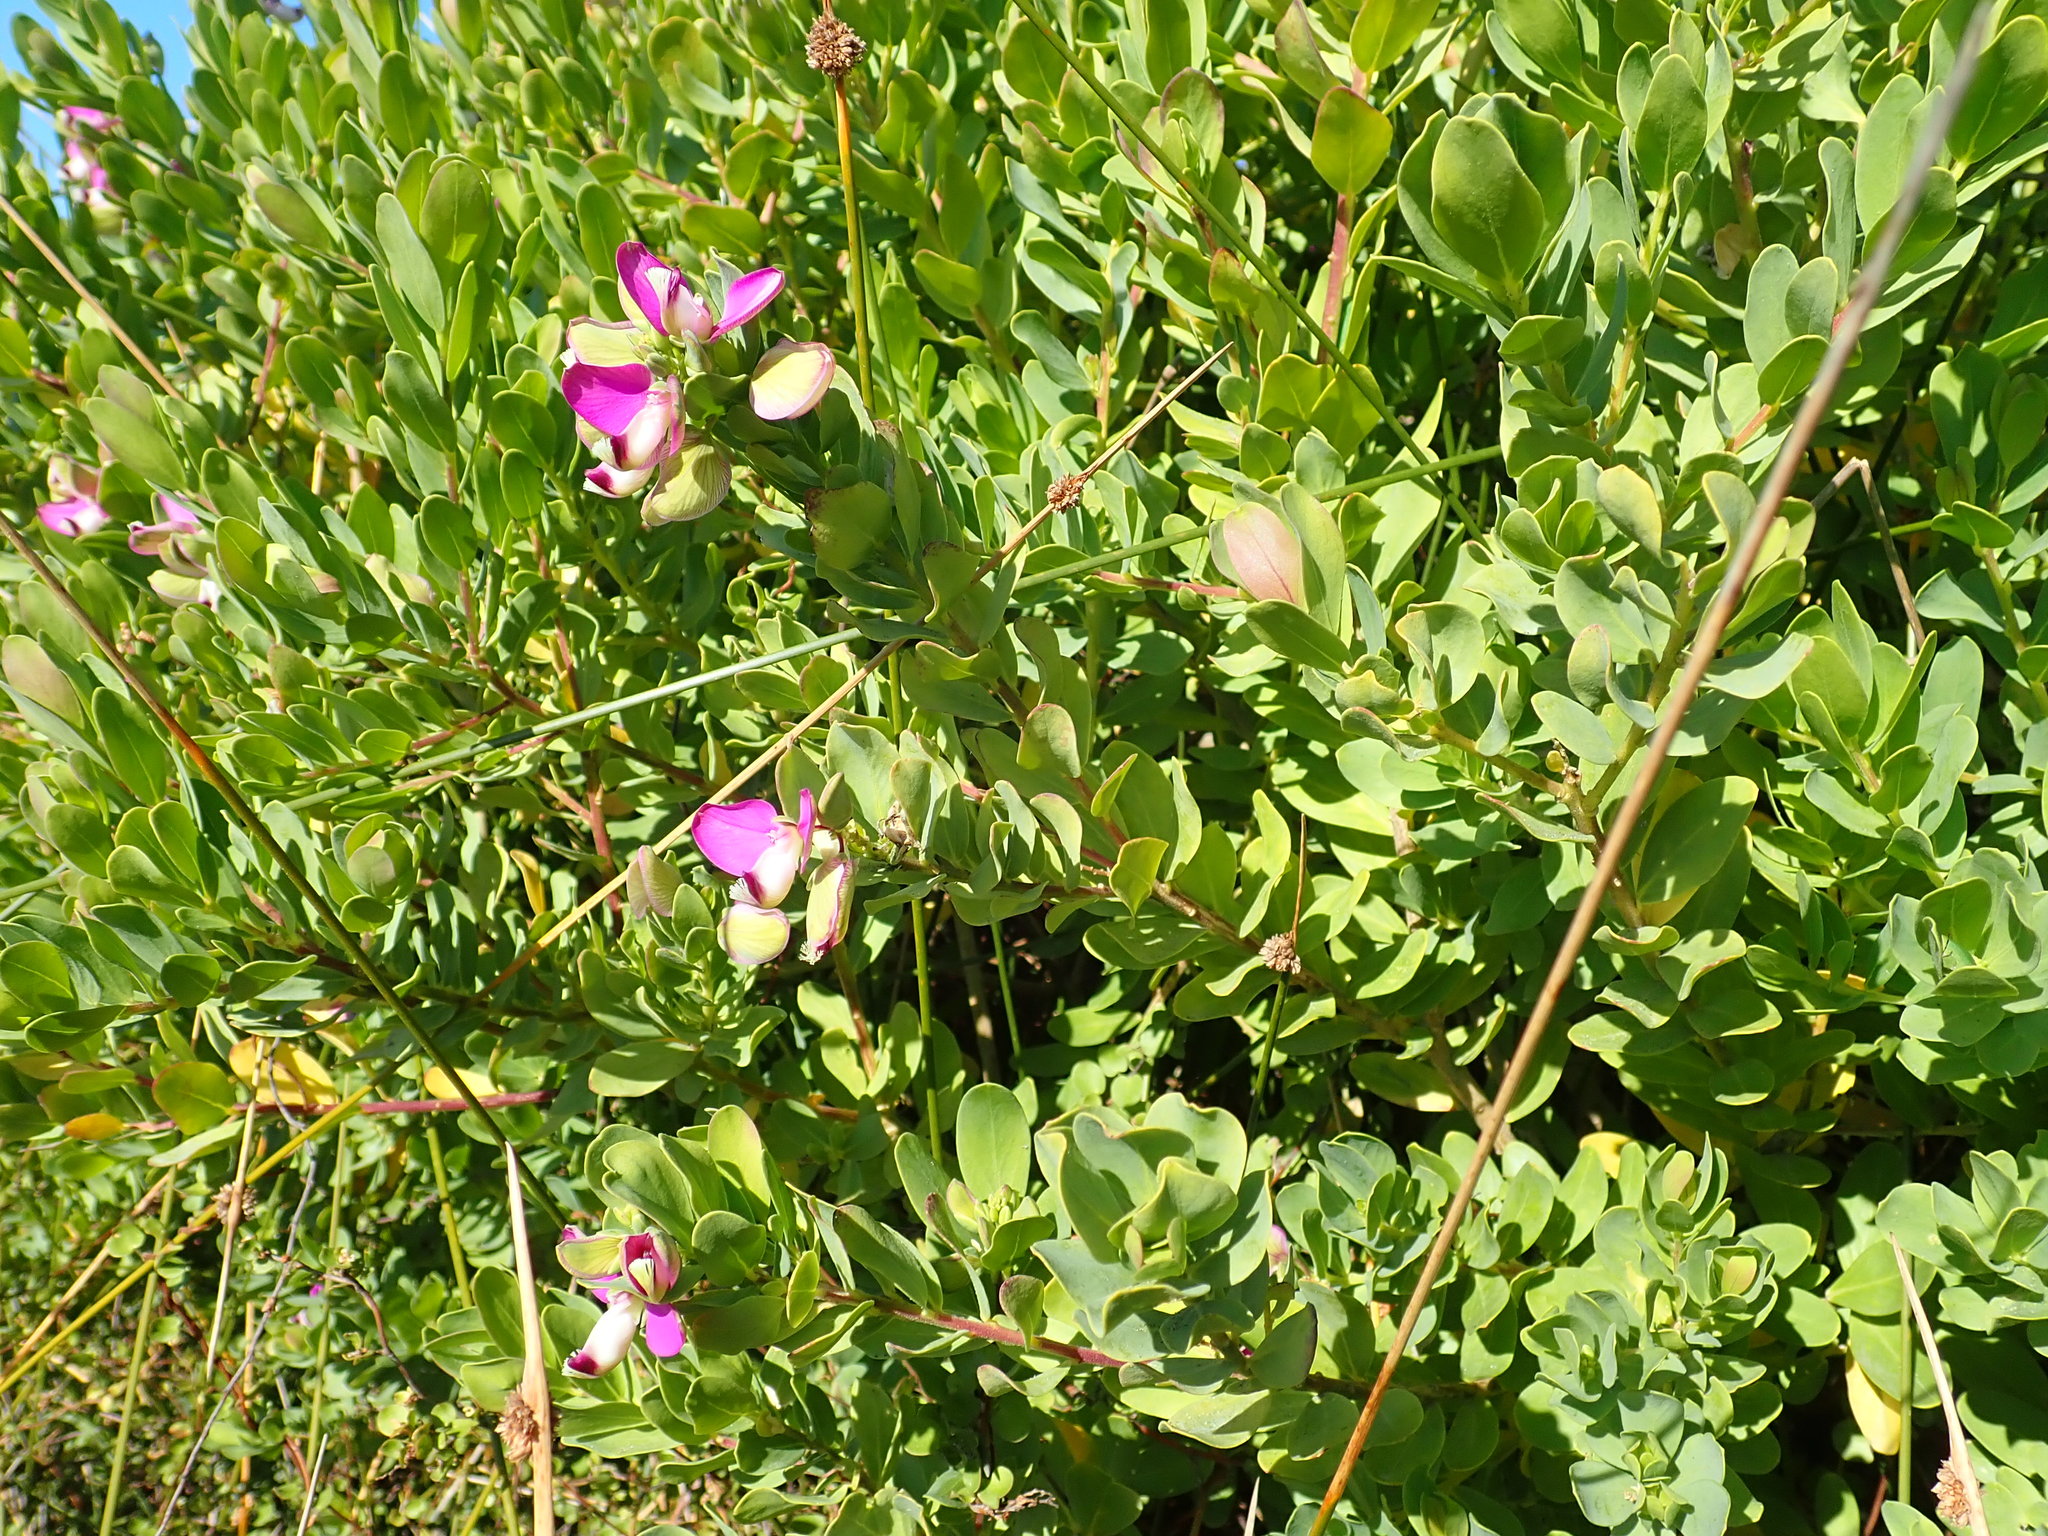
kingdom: Plantae
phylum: Tracheophyta
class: Magnoliopsida
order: Fabales
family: Polygalaceae
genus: Polygala
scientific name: Polygala myrtifolia
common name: Myrtle-leaf milkwort
